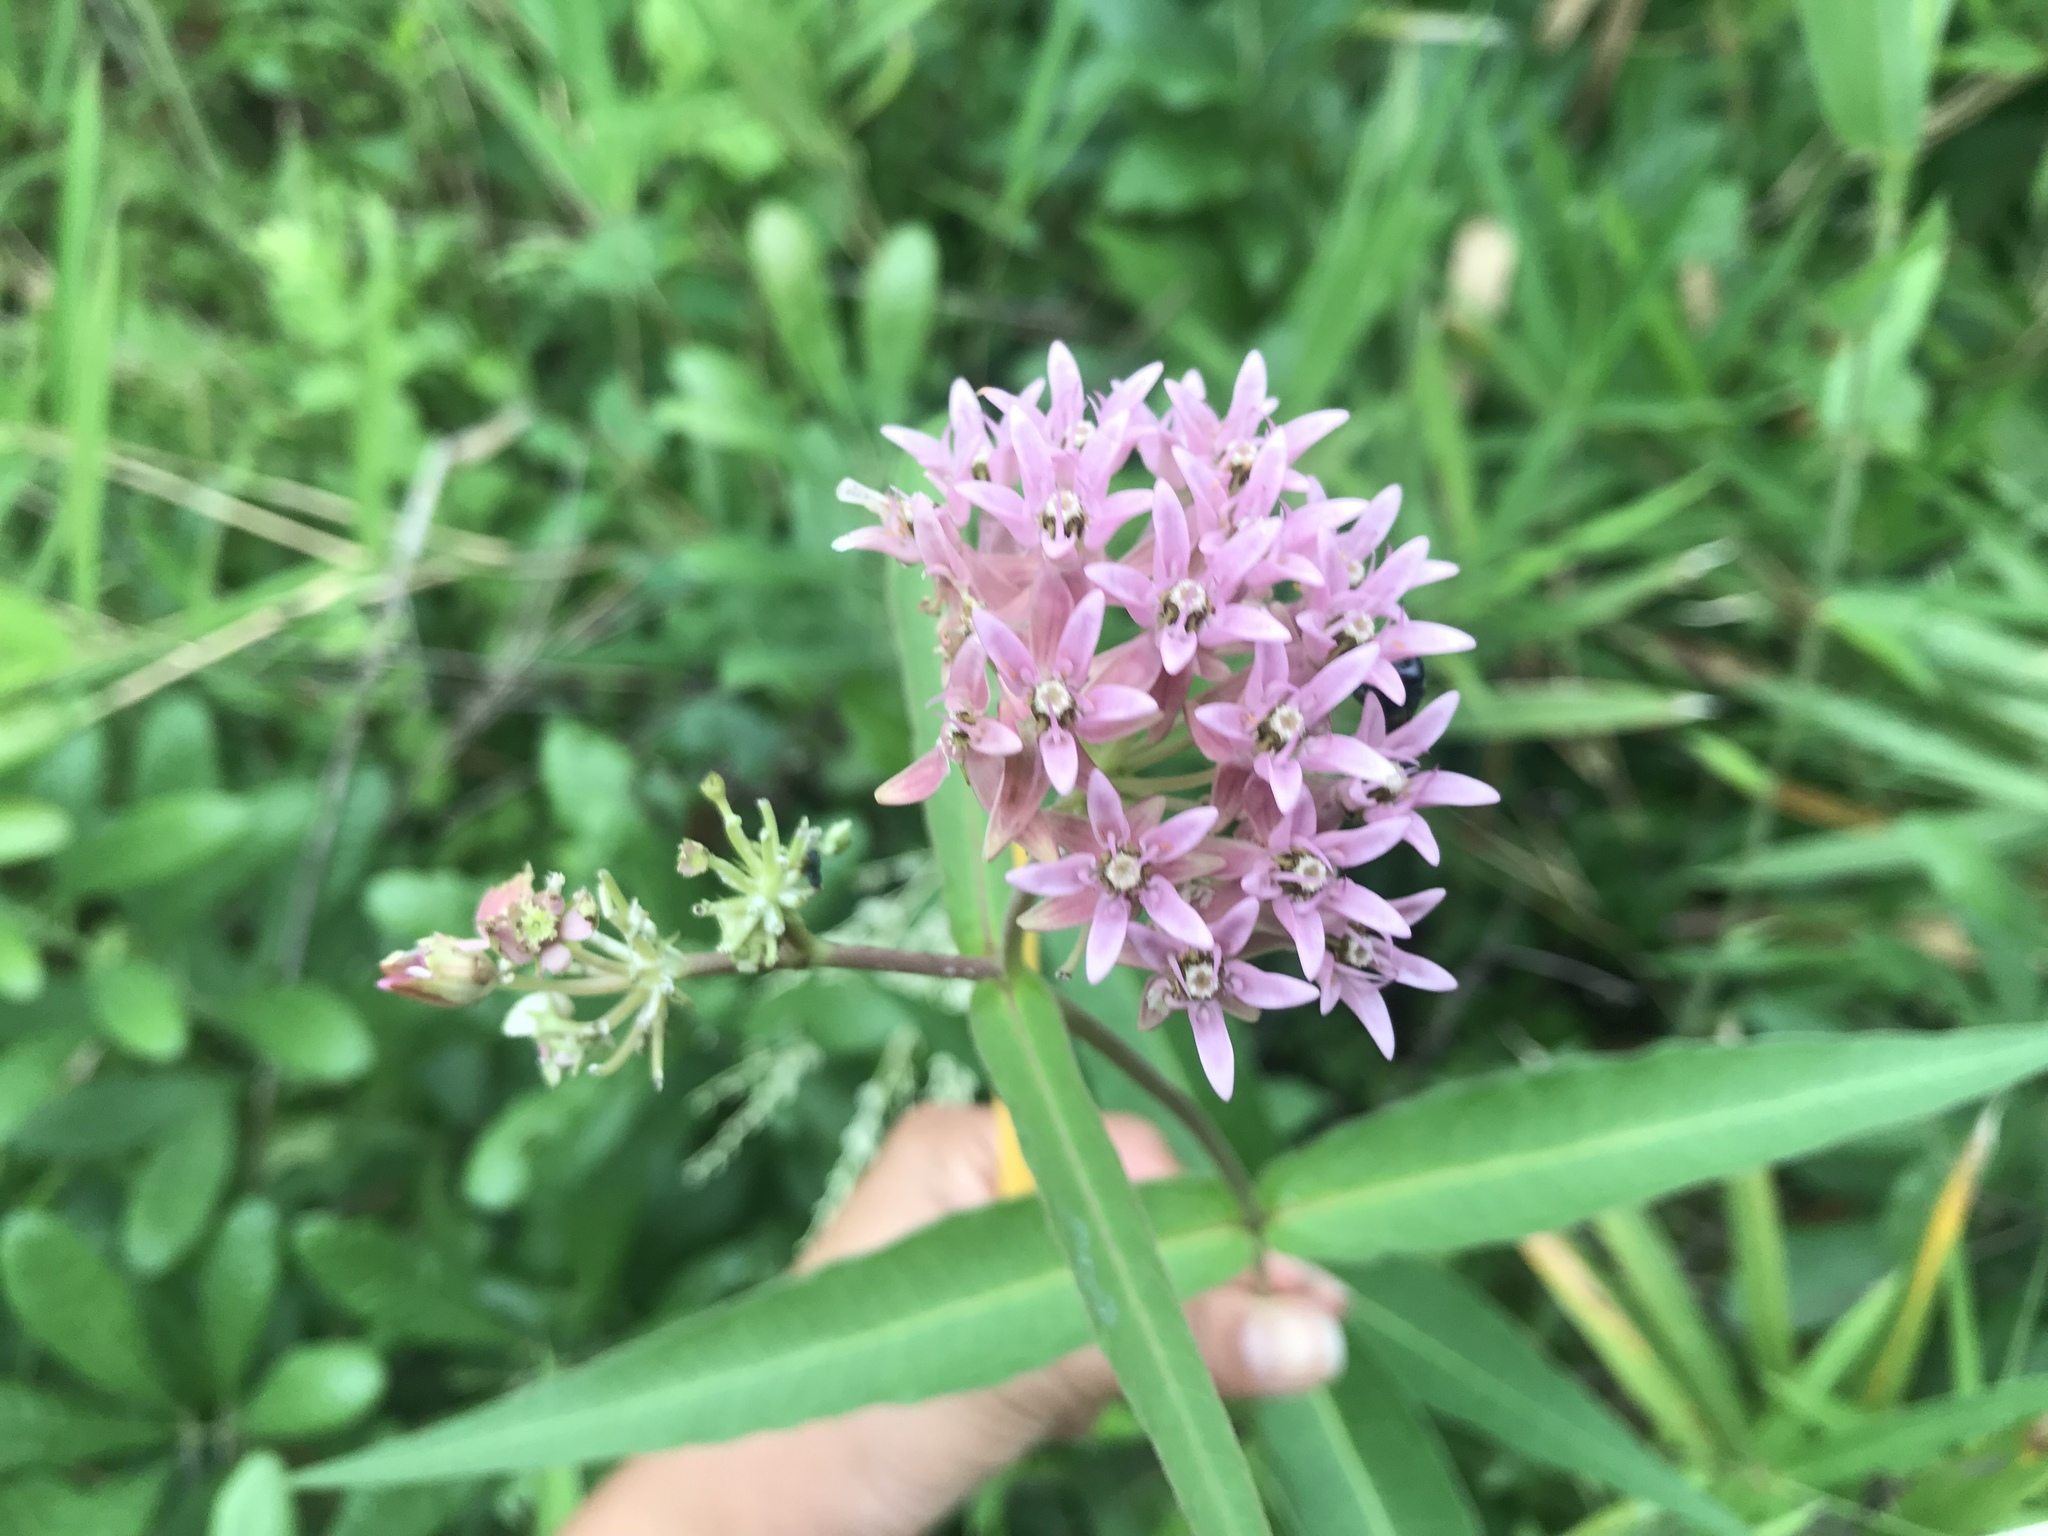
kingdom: Plantae
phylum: Tracheophyta
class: Magnoliopsida
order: Gentianales
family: Apocynaceae
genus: Asclepias
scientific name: Asclepias rubra
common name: Red milkweed
